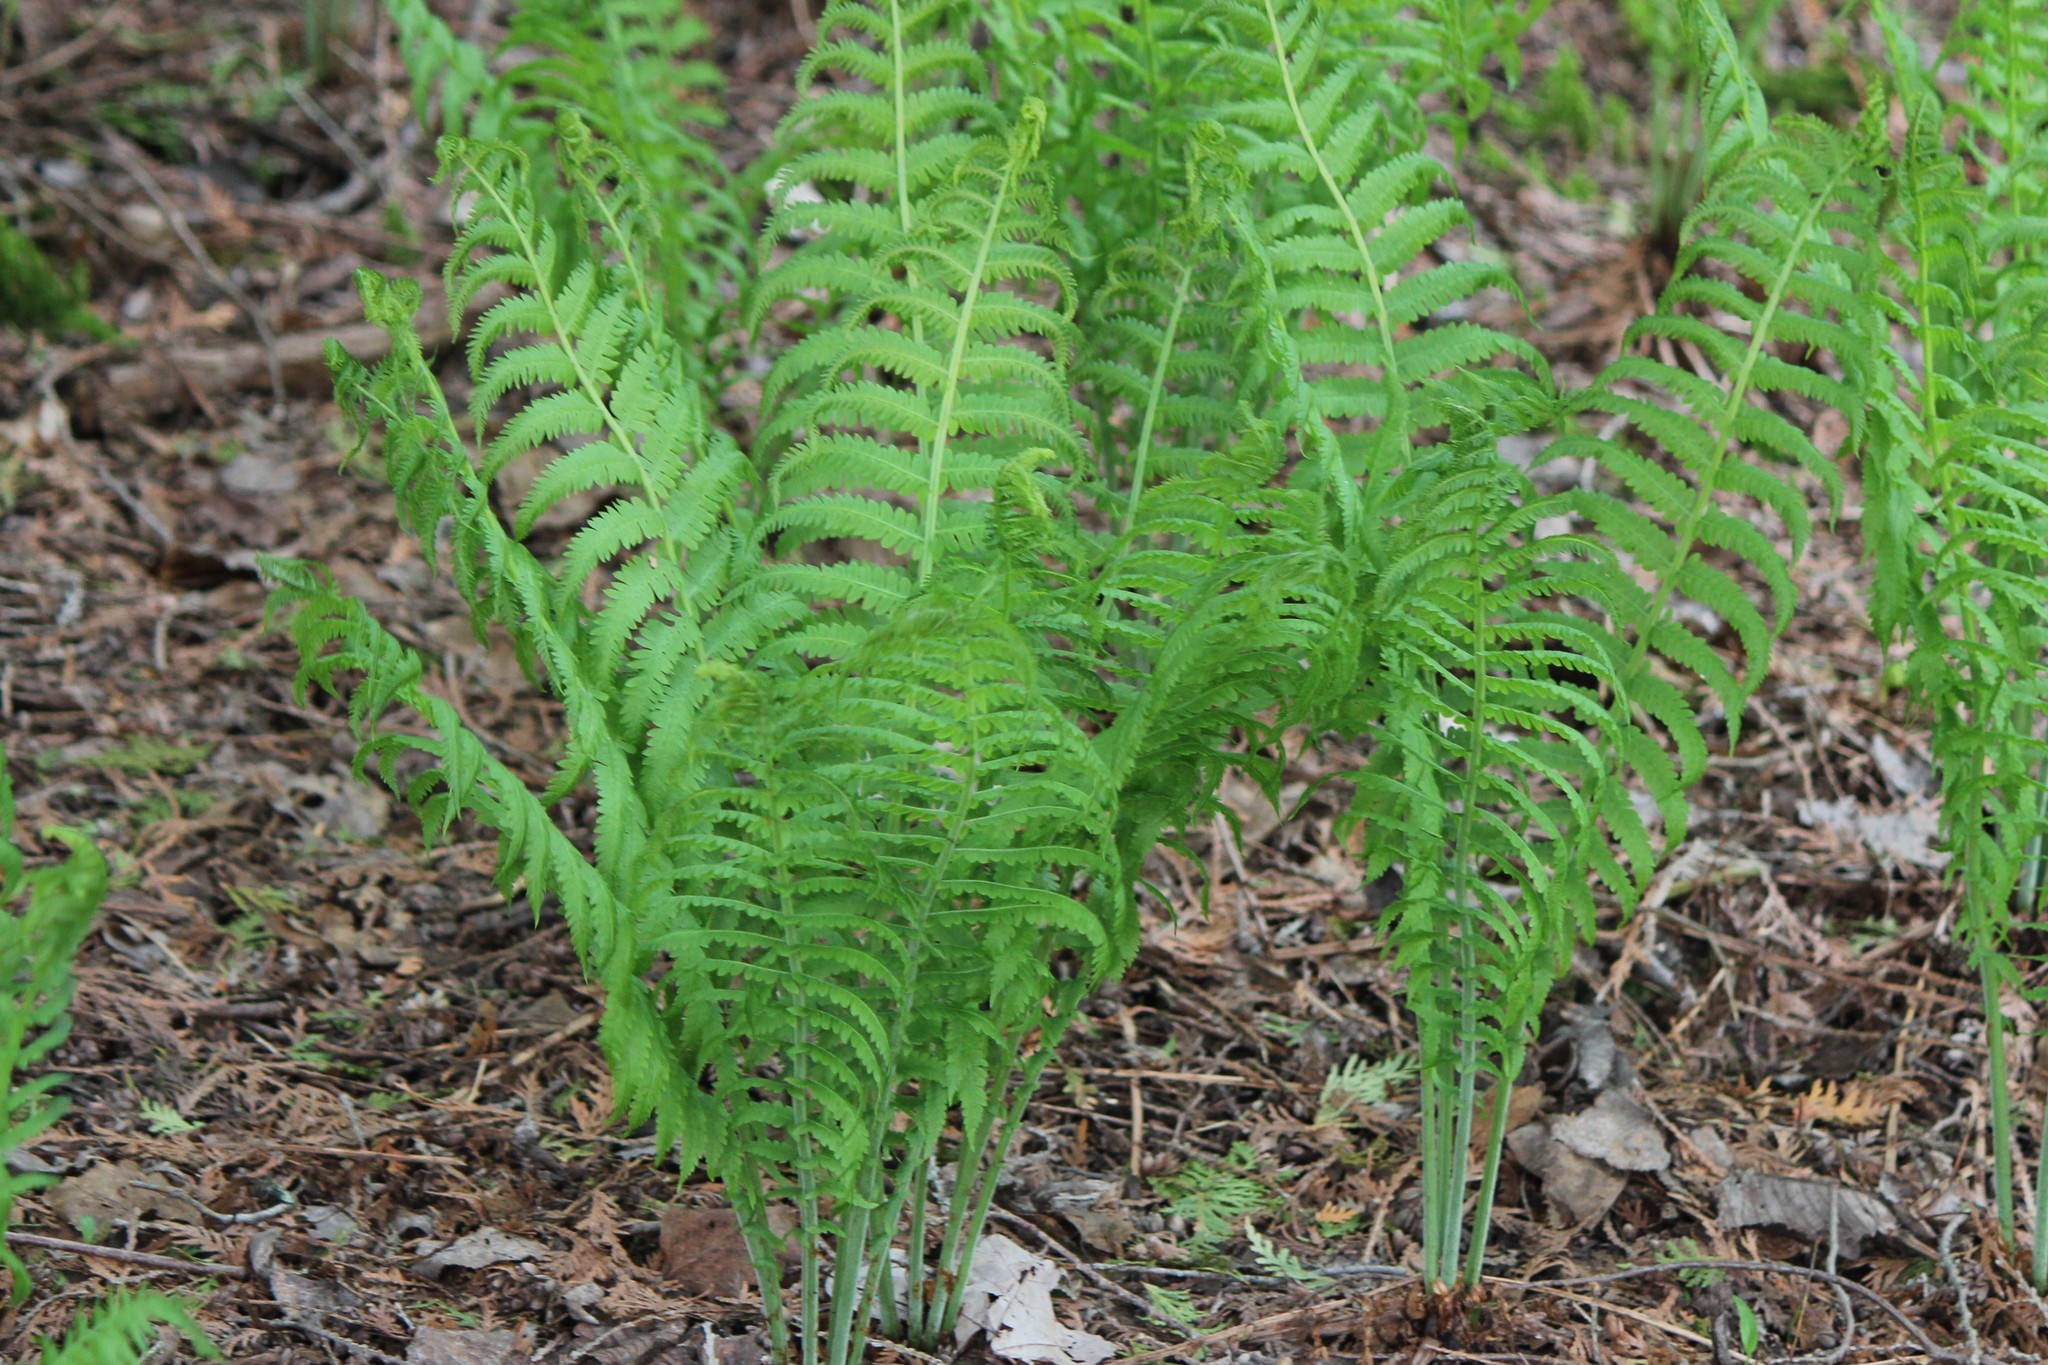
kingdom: Plantae
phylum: Tracheophyta
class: Polypodiopsida
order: Polypodiales
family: Onocleaceae
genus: Matteuccia
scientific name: Matteuccia struthiopteris
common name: Ostrich fern
